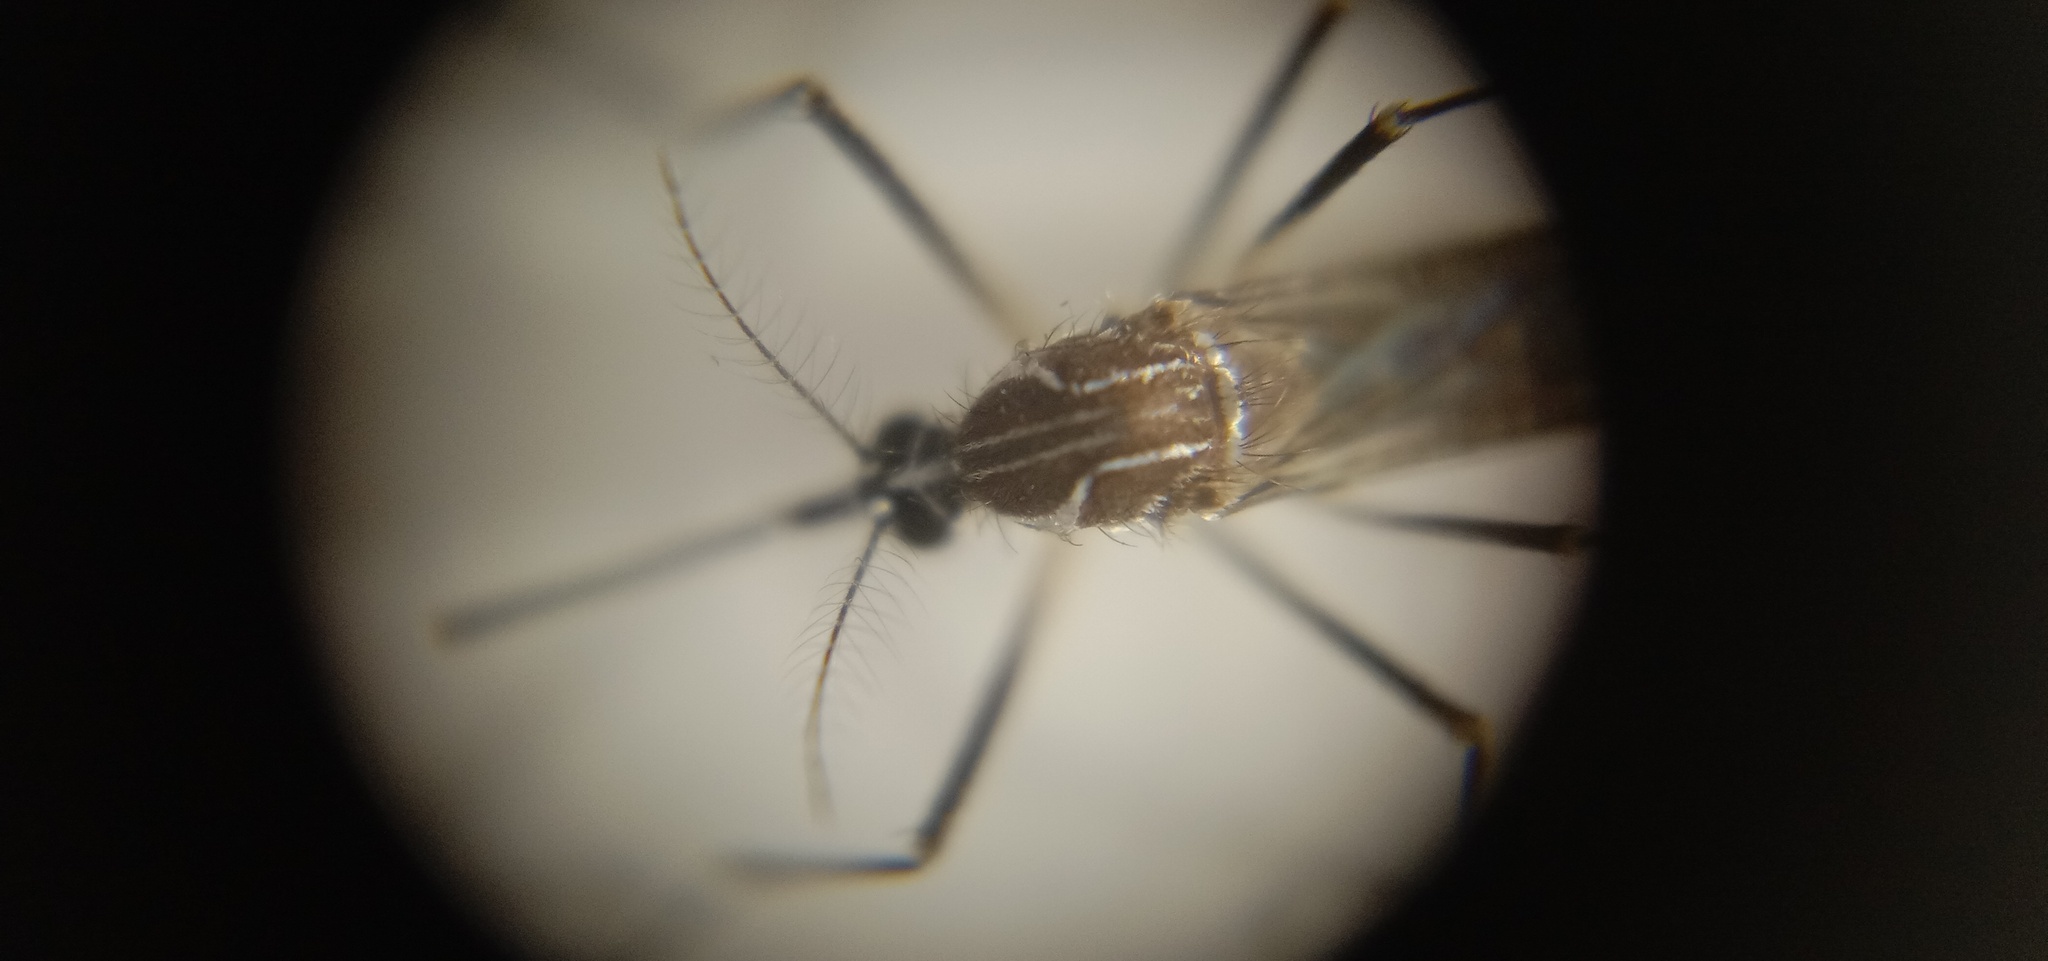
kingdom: Animalia
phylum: Arthropoda
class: Insecta
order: Diptera
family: Culicidae
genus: Aedes
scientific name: Aedes aegypti
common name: Yellow fever mosquito
